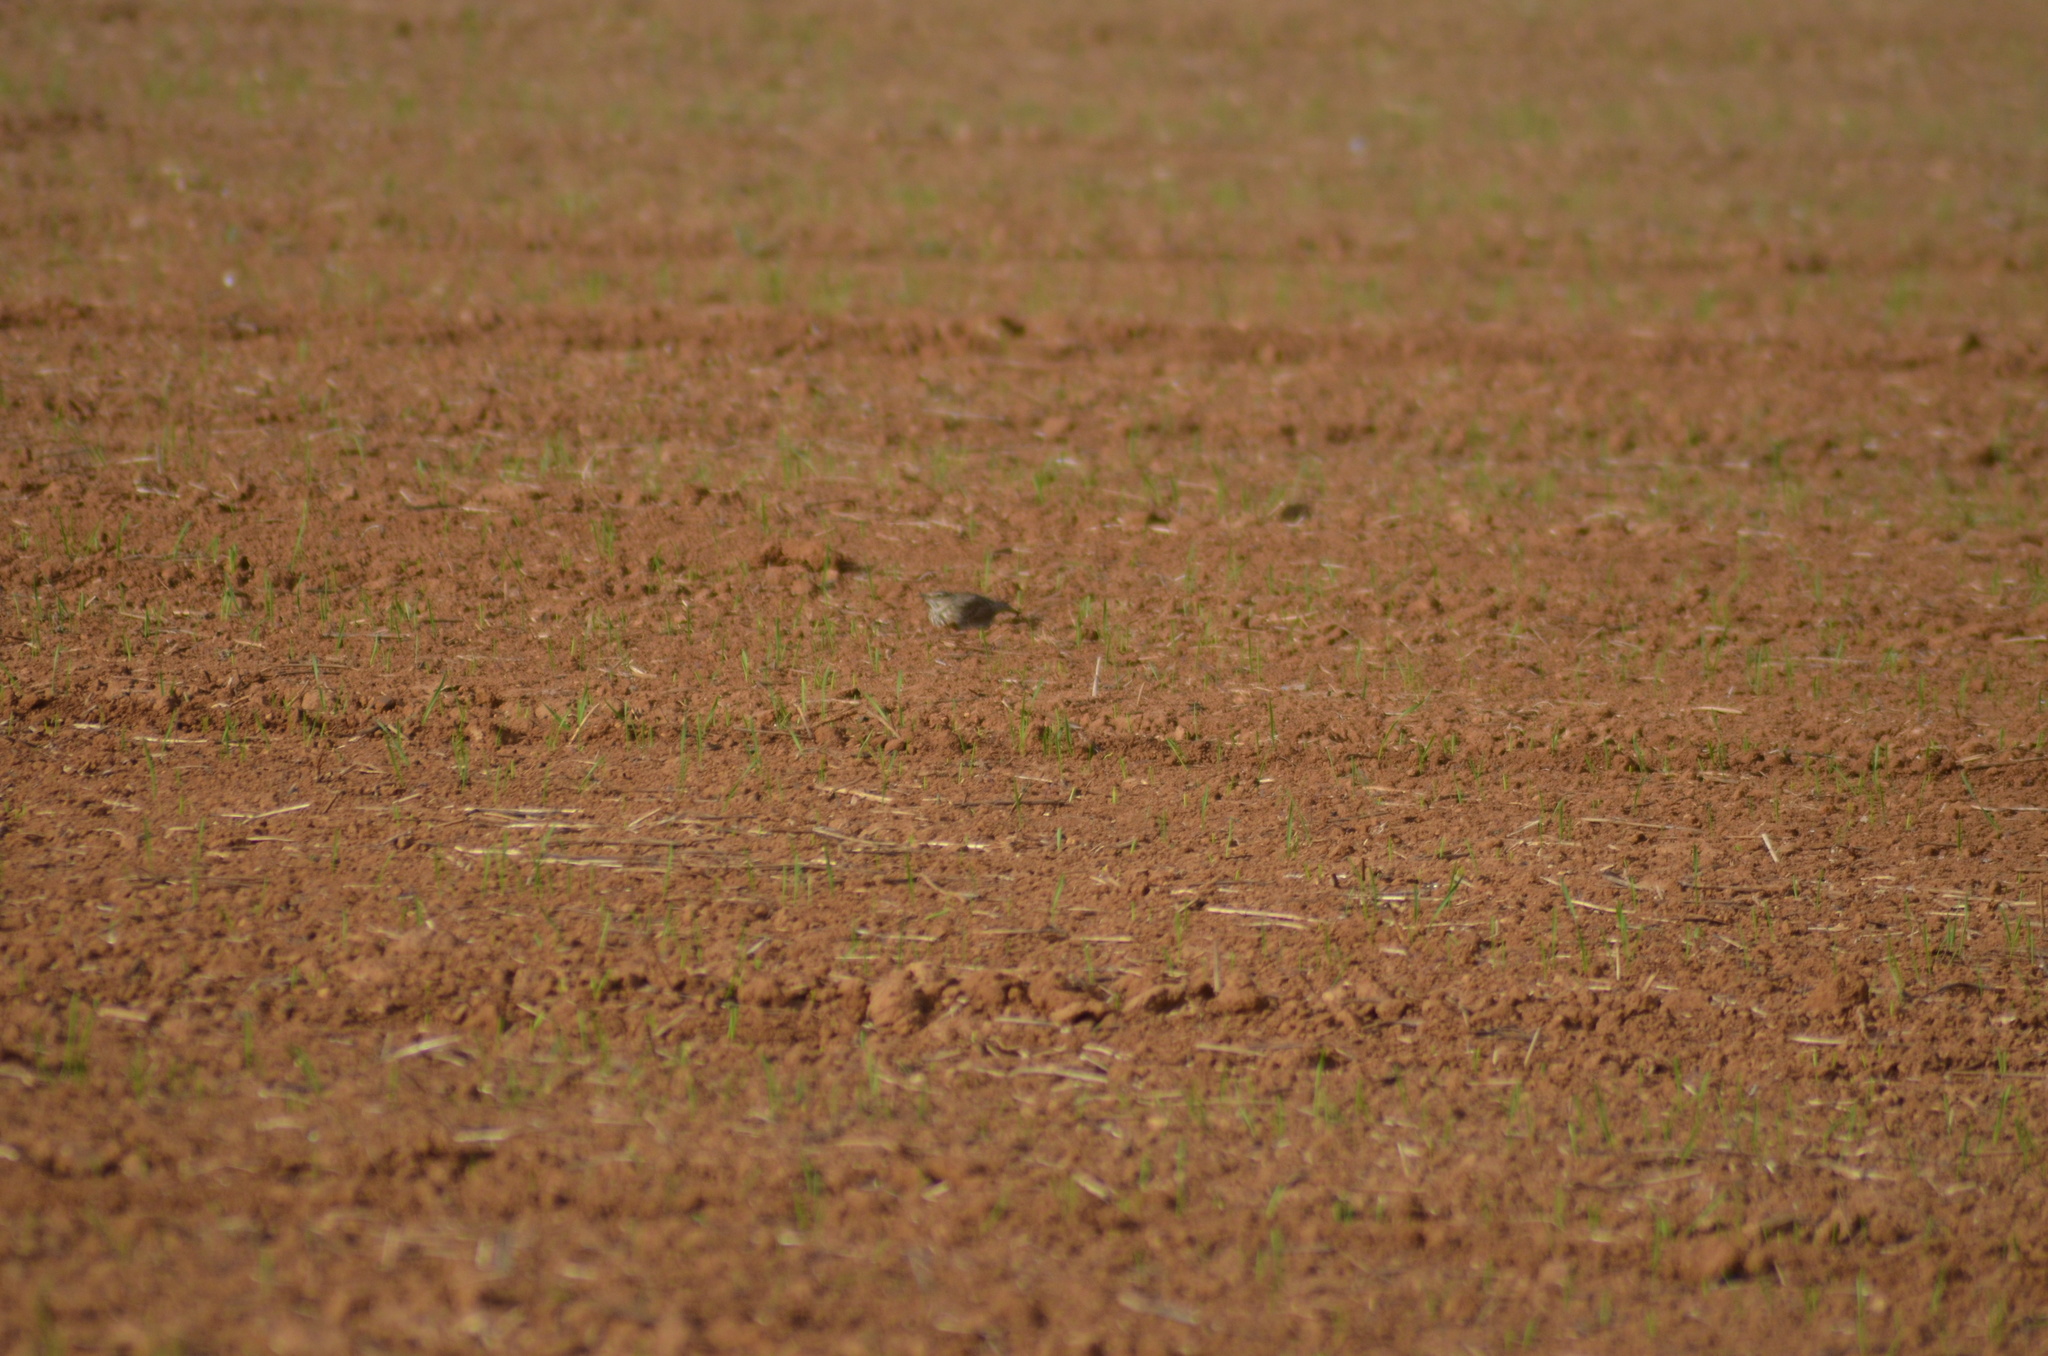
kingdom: Animalia
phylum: Chordata
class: Aves
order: Passeriformes
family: Alaudidae
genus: Galerida
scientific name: Galerida cristata
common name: Crested lark
